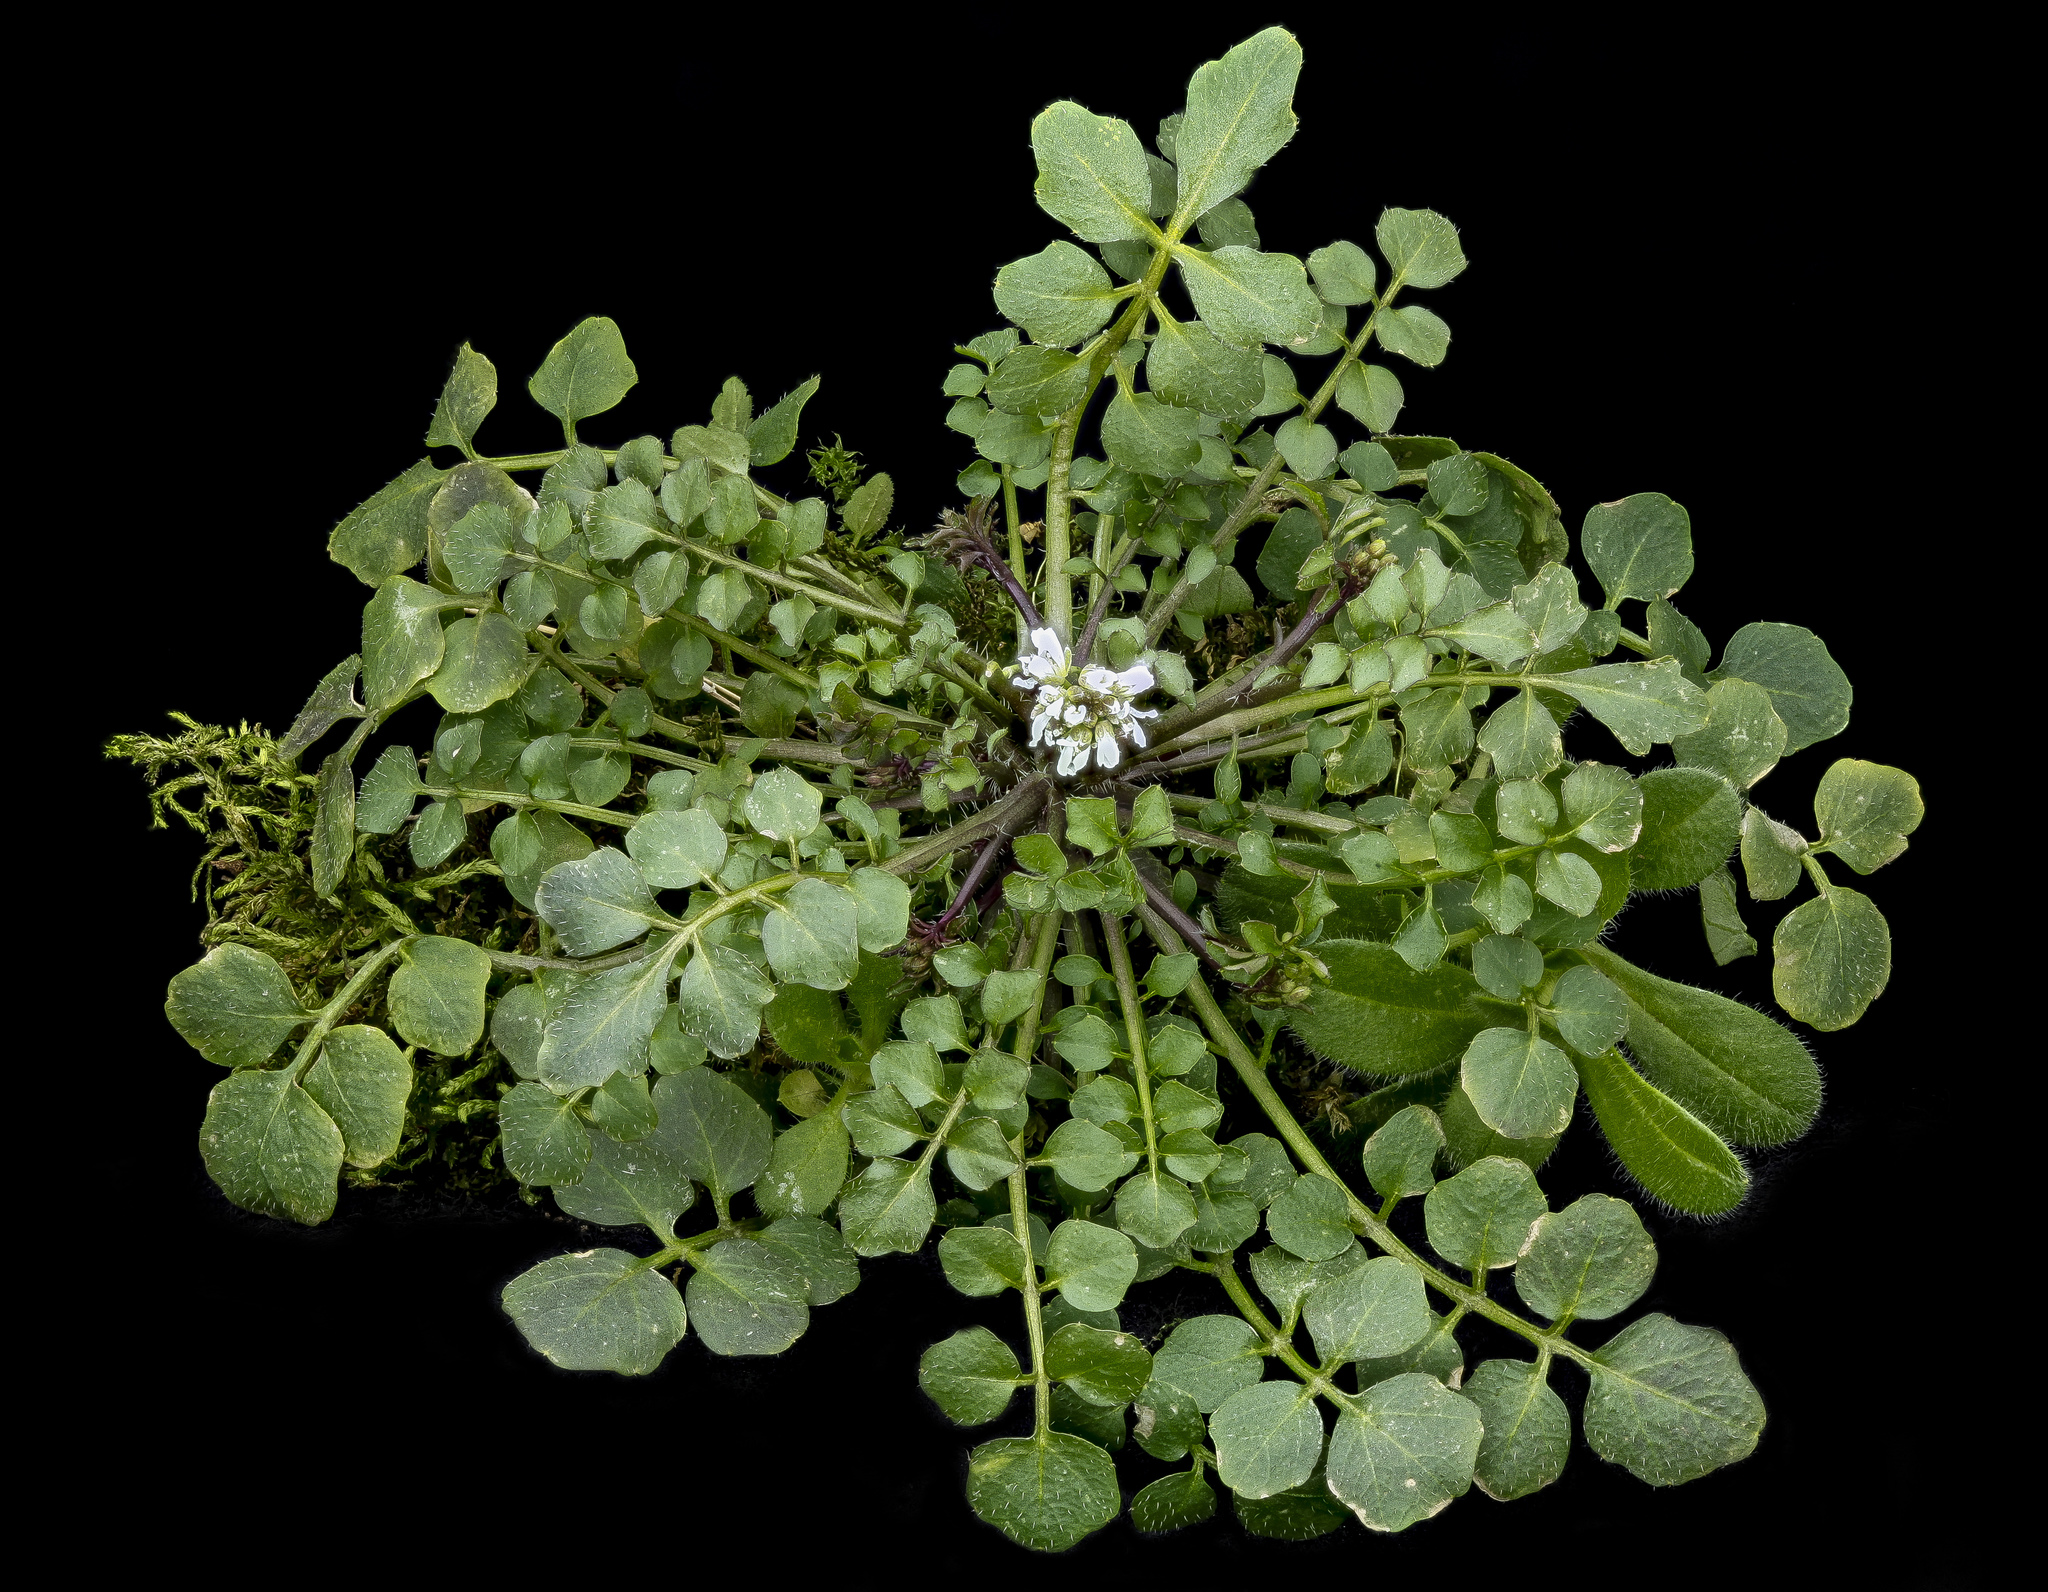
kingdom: Plantae
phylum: Tracheophyta
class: Magnoliopsida
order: Brassicales
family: Brassicaceae
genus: Cardamine
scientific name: Cardamine hirsuta
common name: Hairy bittercress
